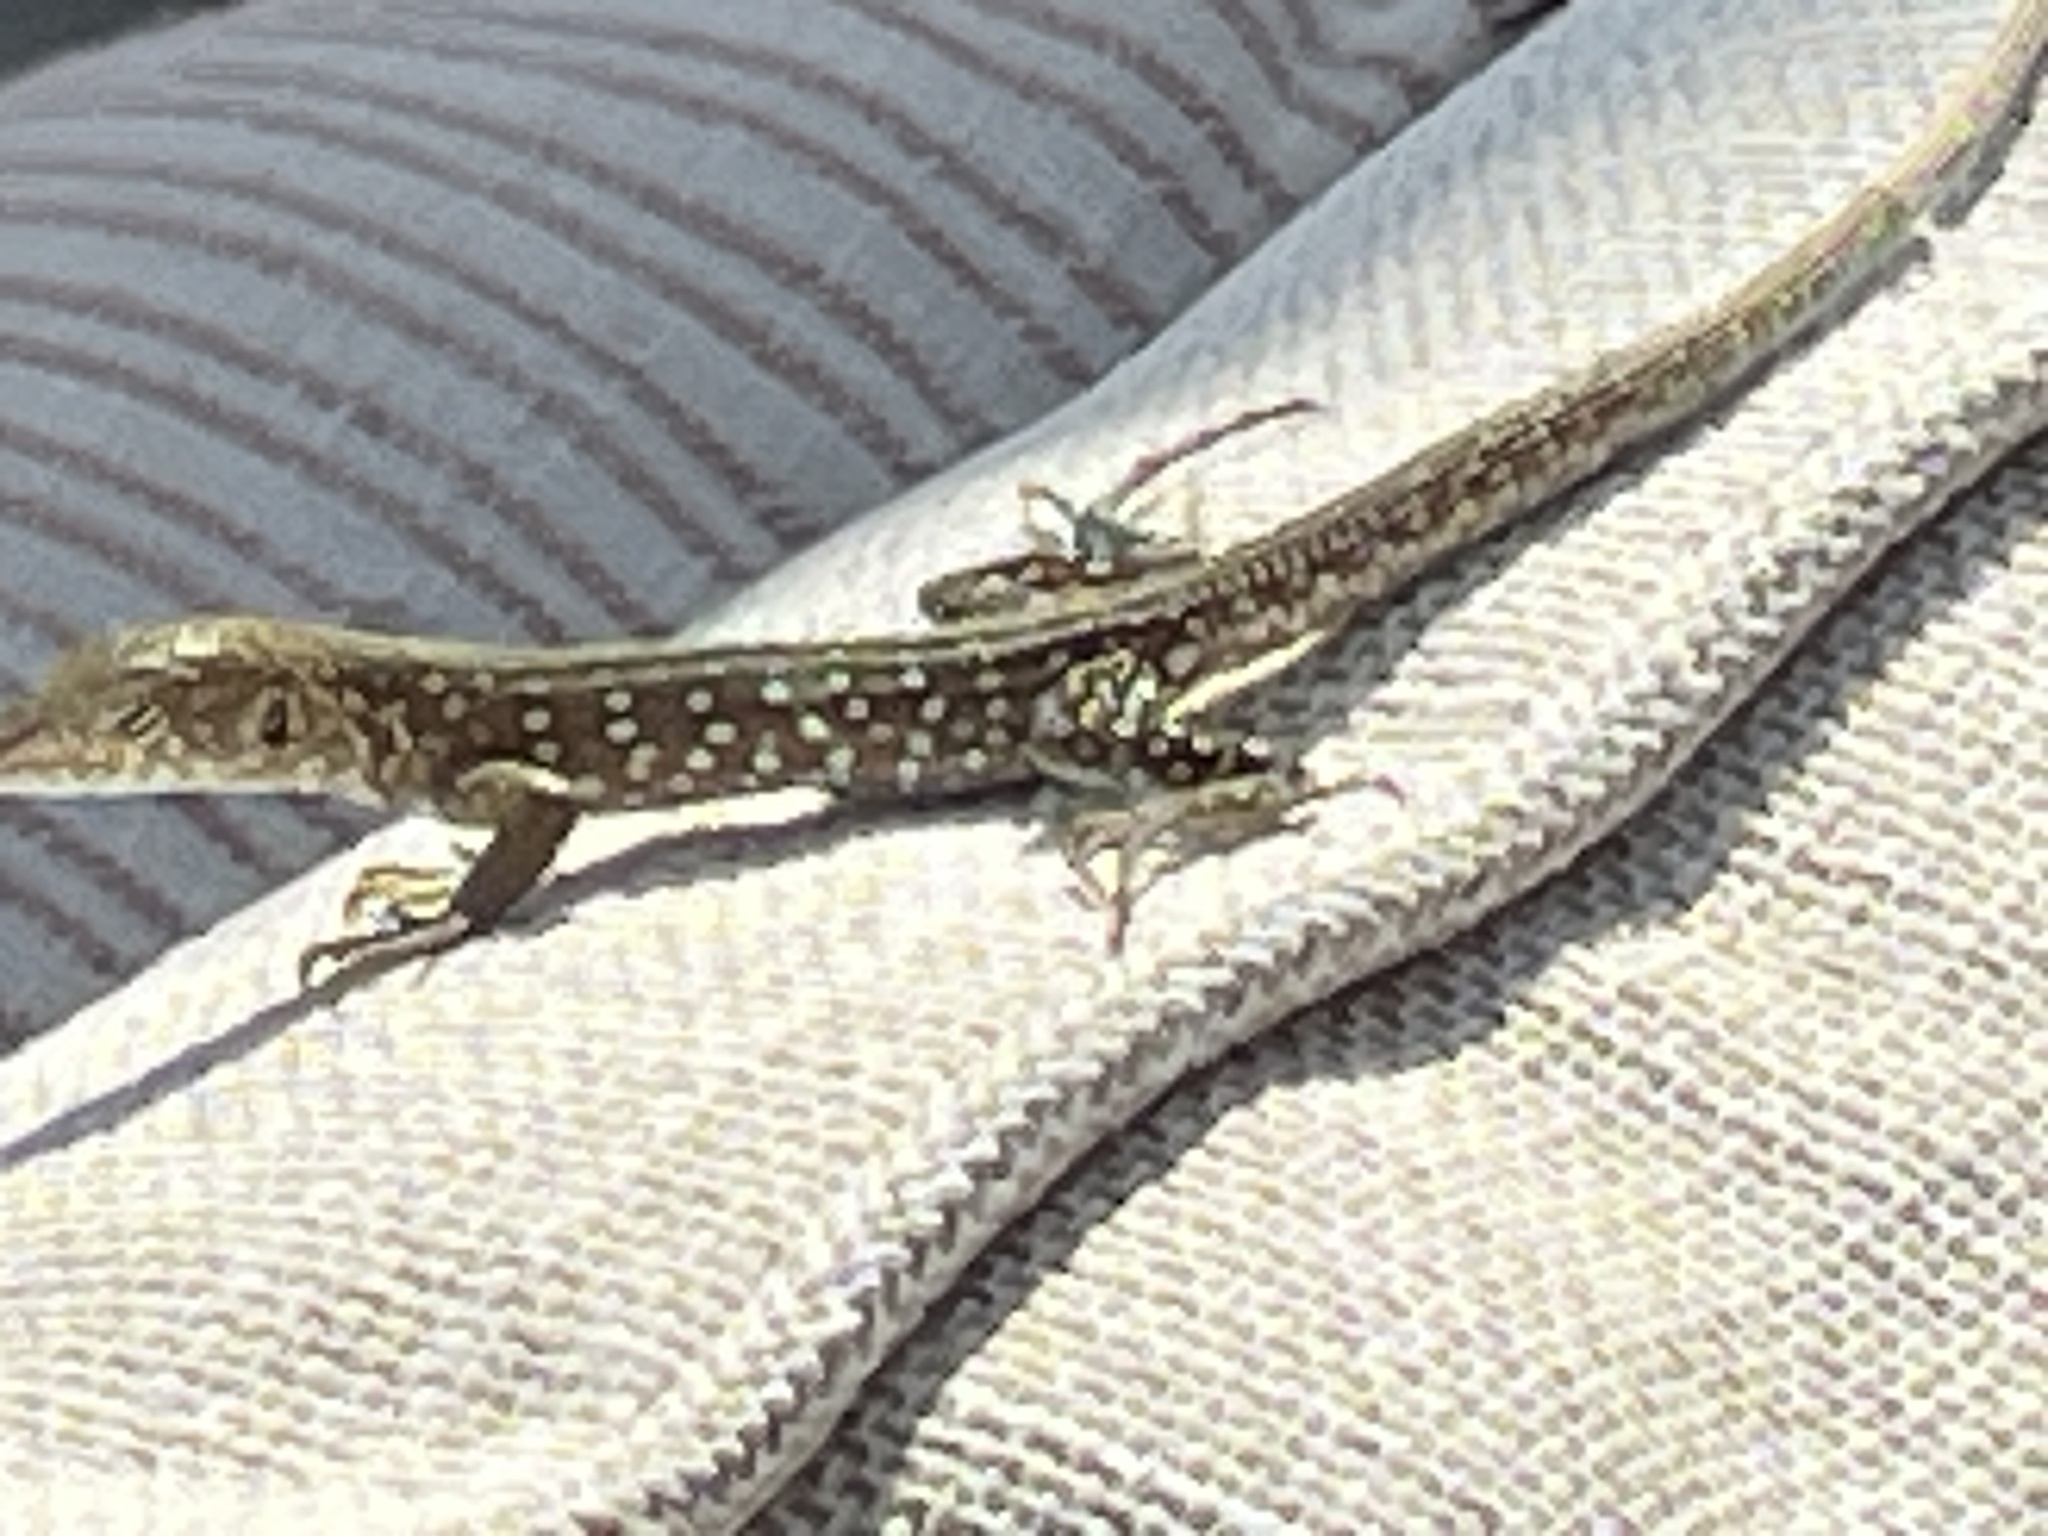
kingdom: Animalia
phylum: Chordata
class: Squamata
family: Teiidae
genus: Cnemidophorus
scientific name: Cnemidophorus arubensis
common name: Aruba whiptail
